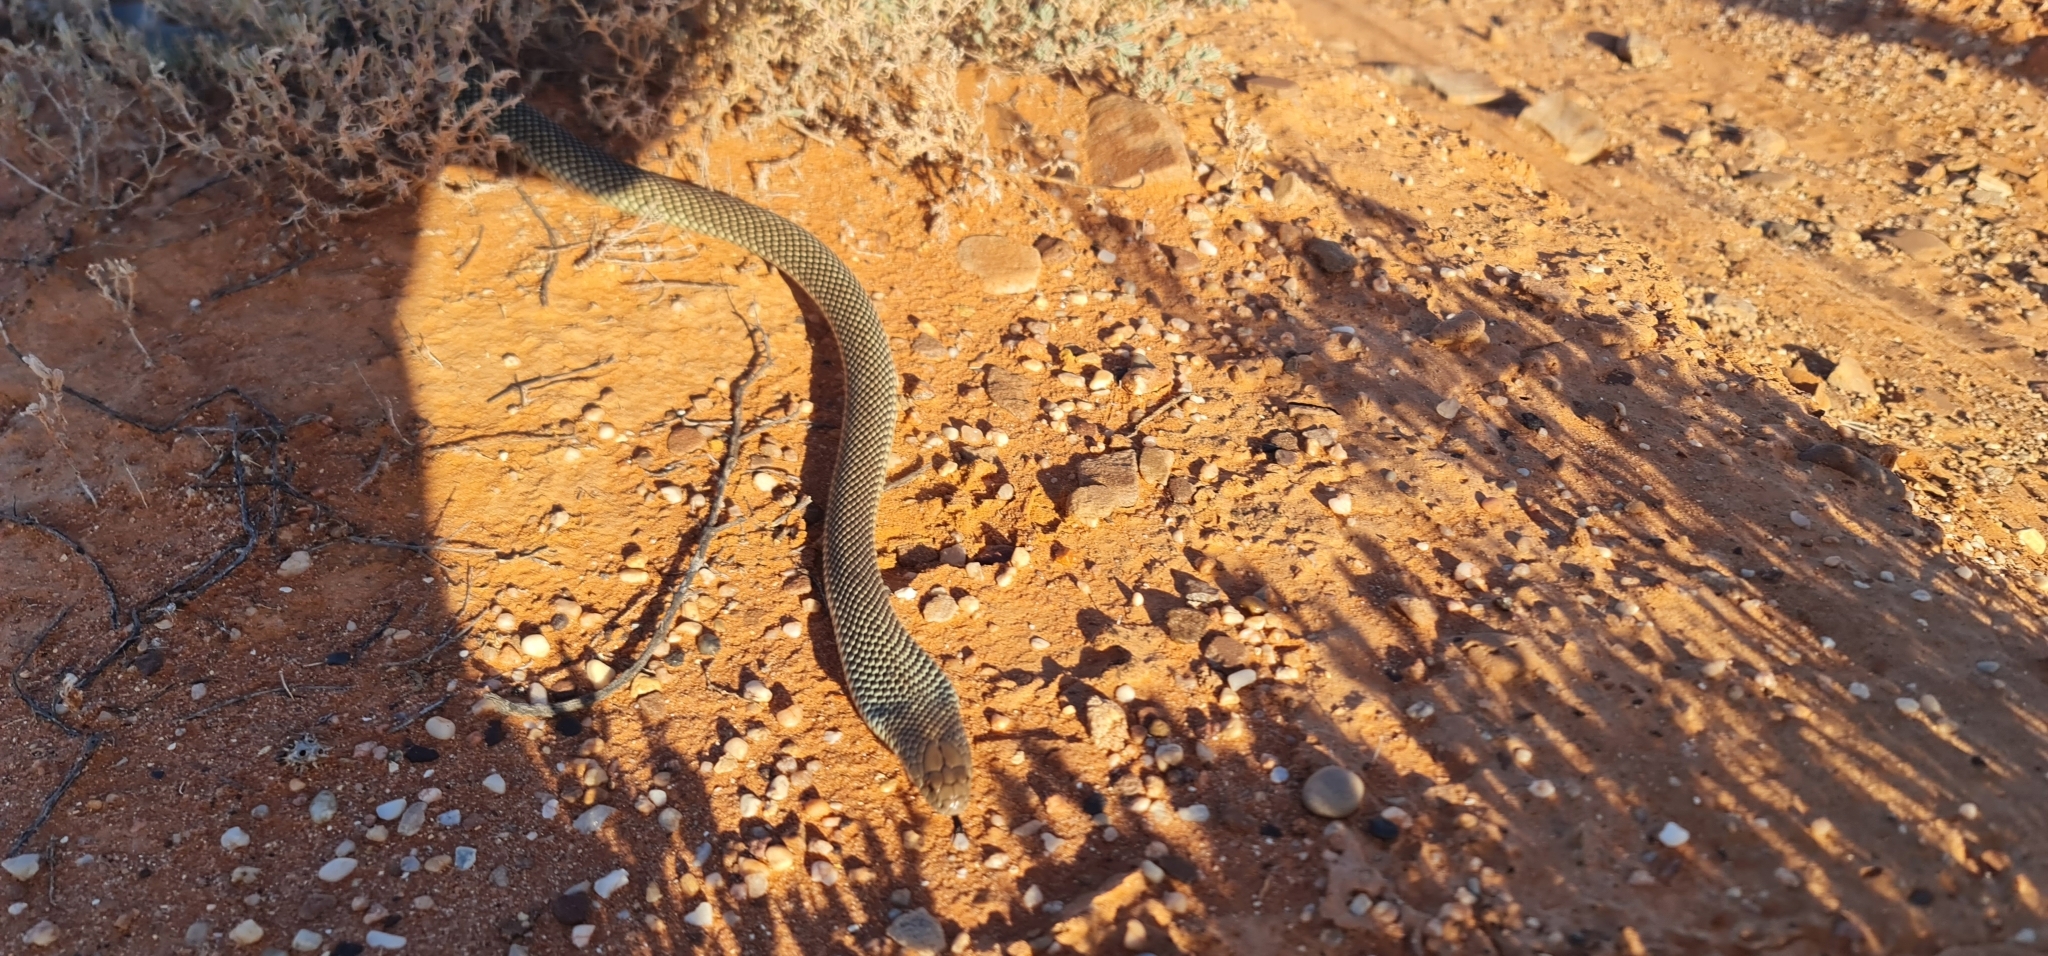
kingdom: Animalia
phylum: Chordata
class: Squamata
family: Elapidae
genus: Pseudechis
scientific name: Pseudechis australis
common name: King brown snake
